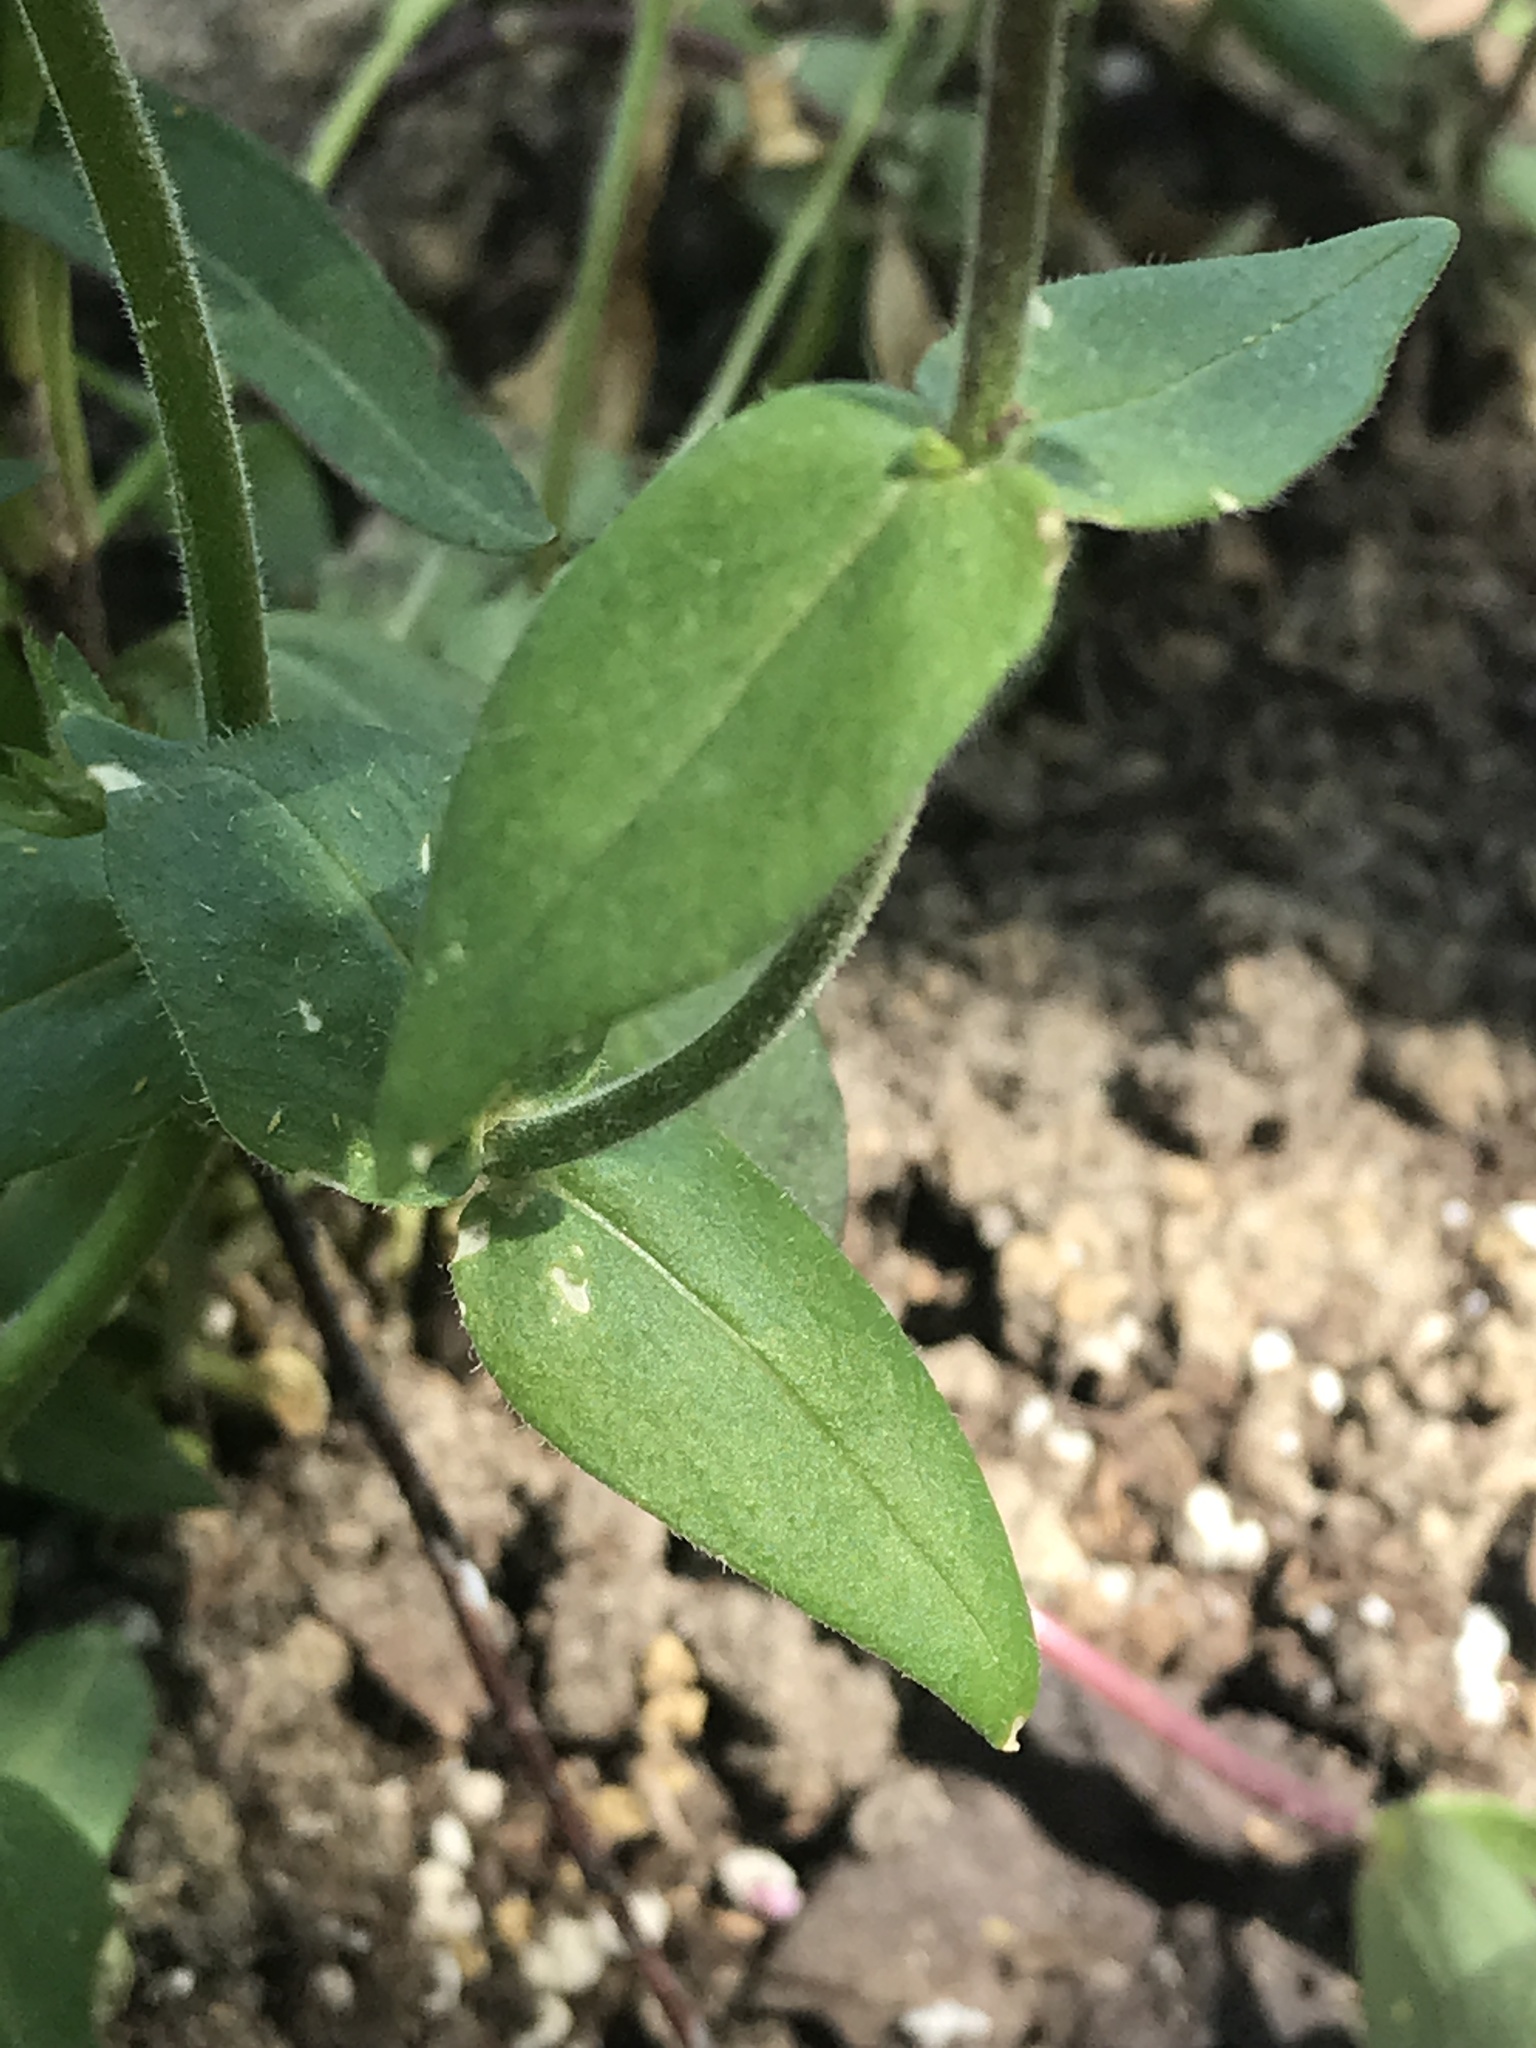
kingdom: Plantae
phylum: Tracheophyta
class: Magnoliopsida
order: Ericales
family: Polemoniaceae
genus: Phlox
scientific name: Phlox divaricata
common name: Blue phlox
